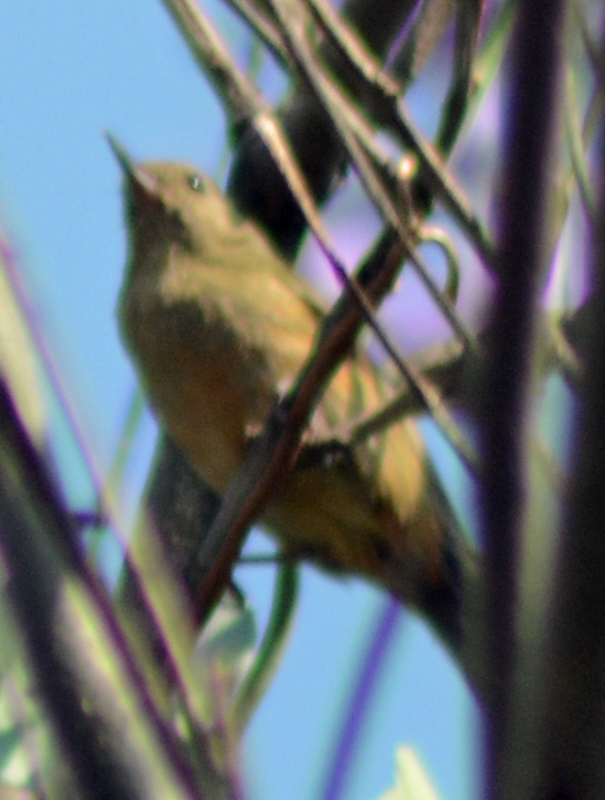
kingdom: Animalia
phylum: Chordata
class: Aves
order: Passeriformes
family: Thraupidae
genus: Diglossa
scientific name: Diglossa baritula
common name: Cinnamon-bellied flowerpiercer
